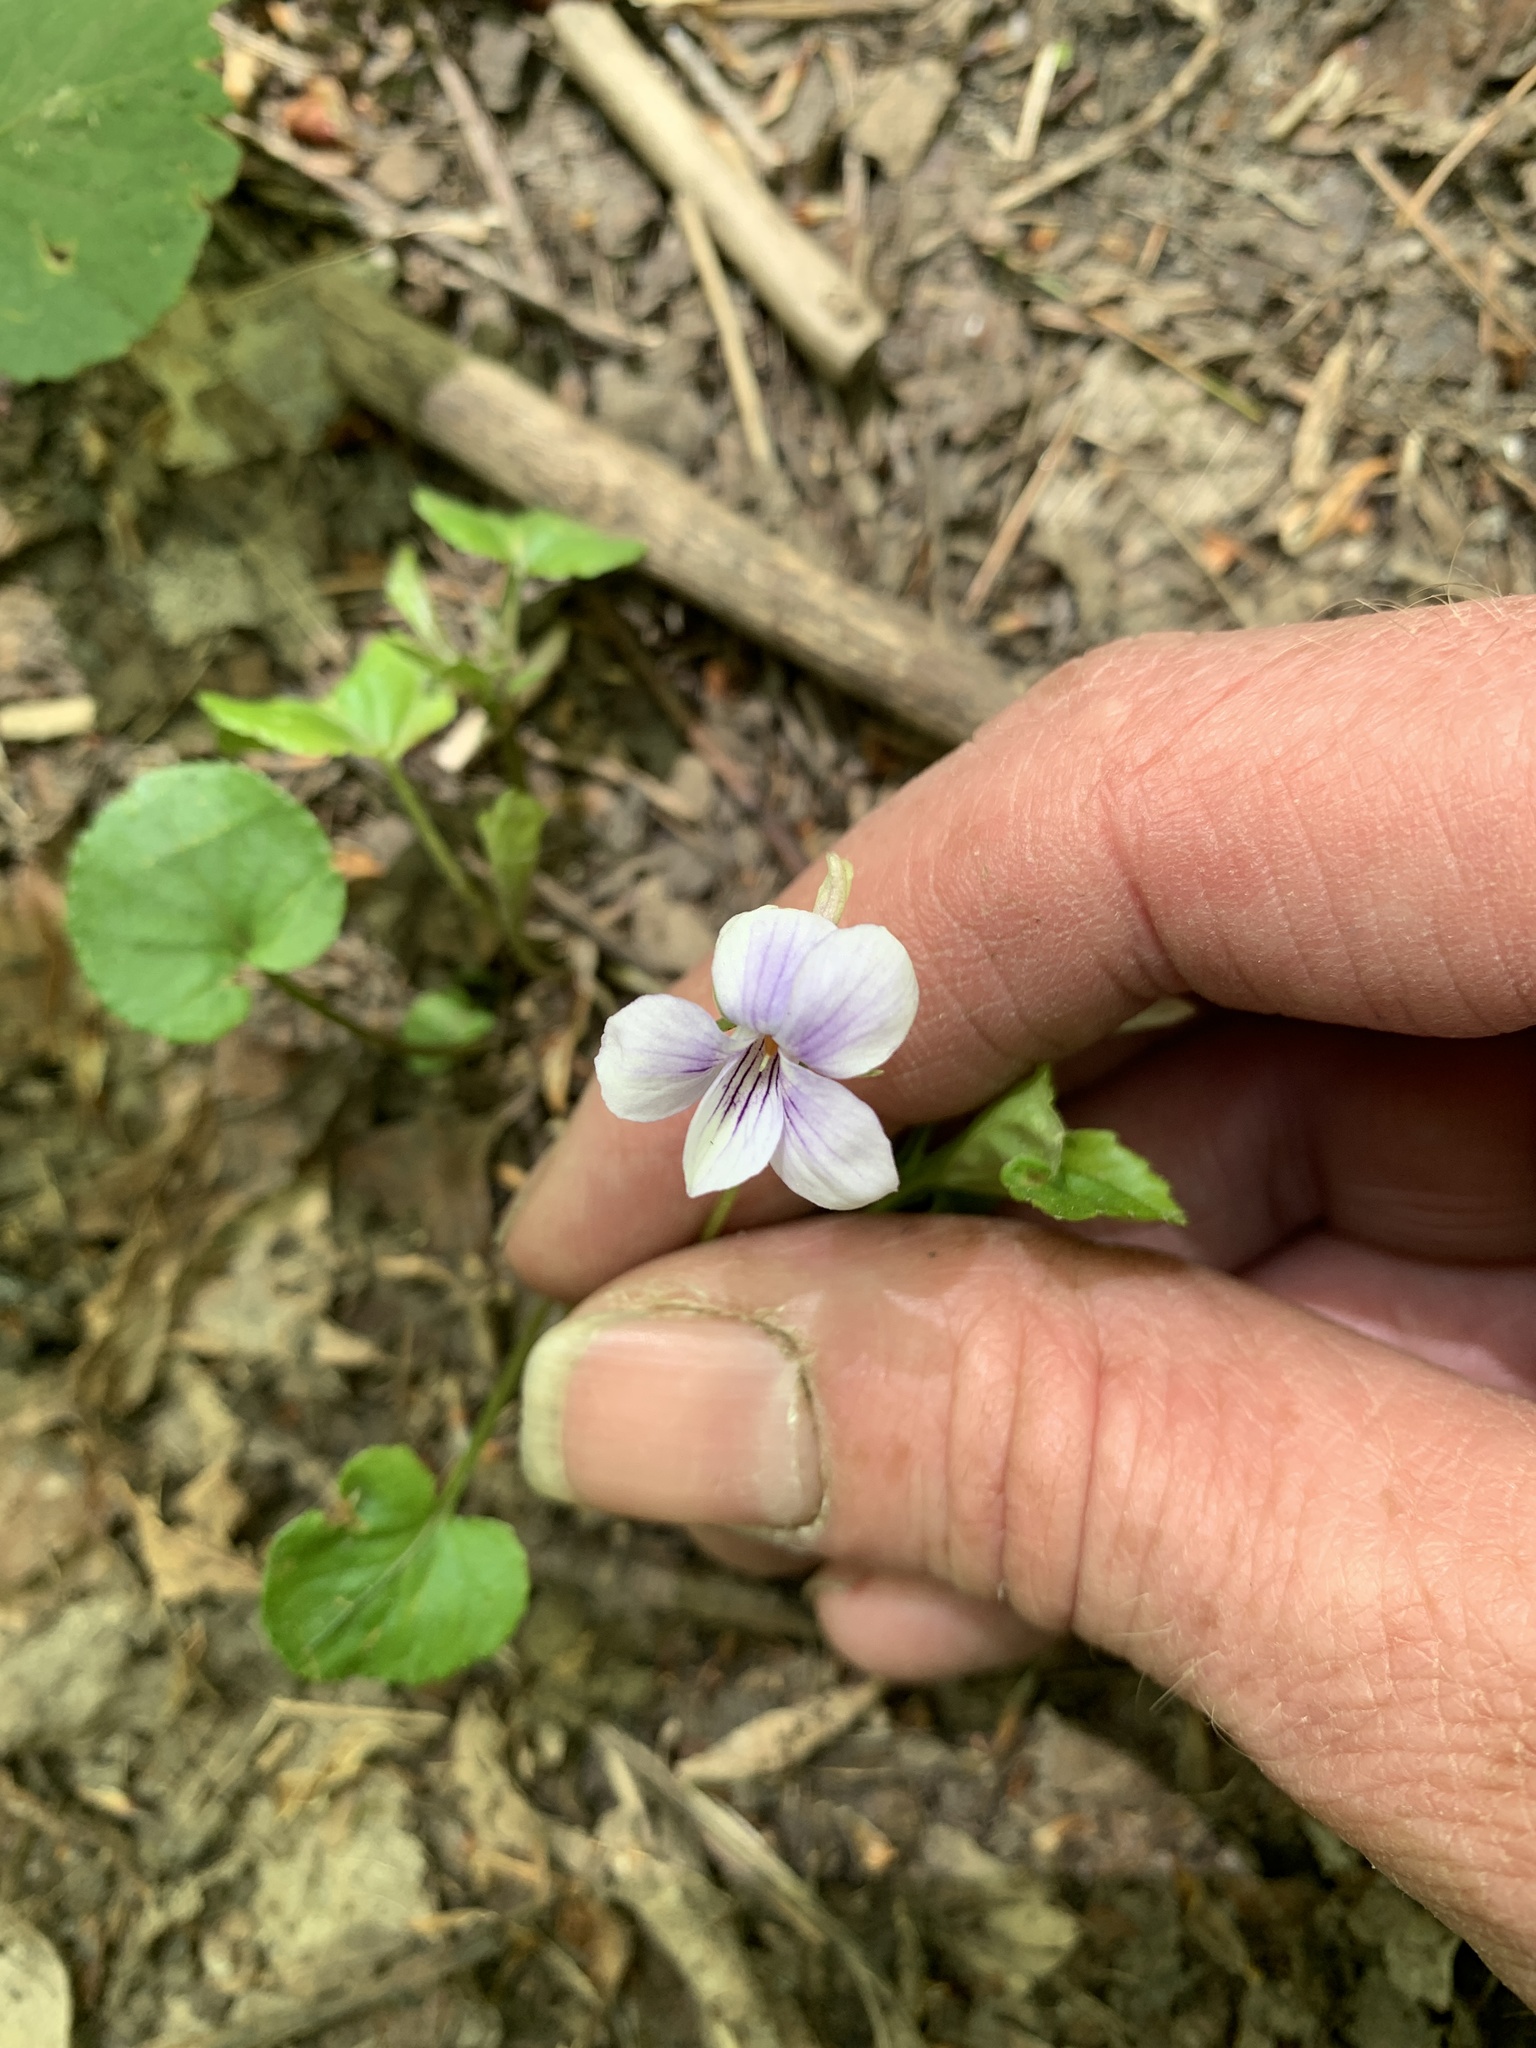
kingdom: Plantae
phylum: Tracheophyta
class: Magnoliopsida
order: Malpighiales
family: Violaceae
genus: Viola
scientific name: Viola rostrata
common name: Long-spur violet
